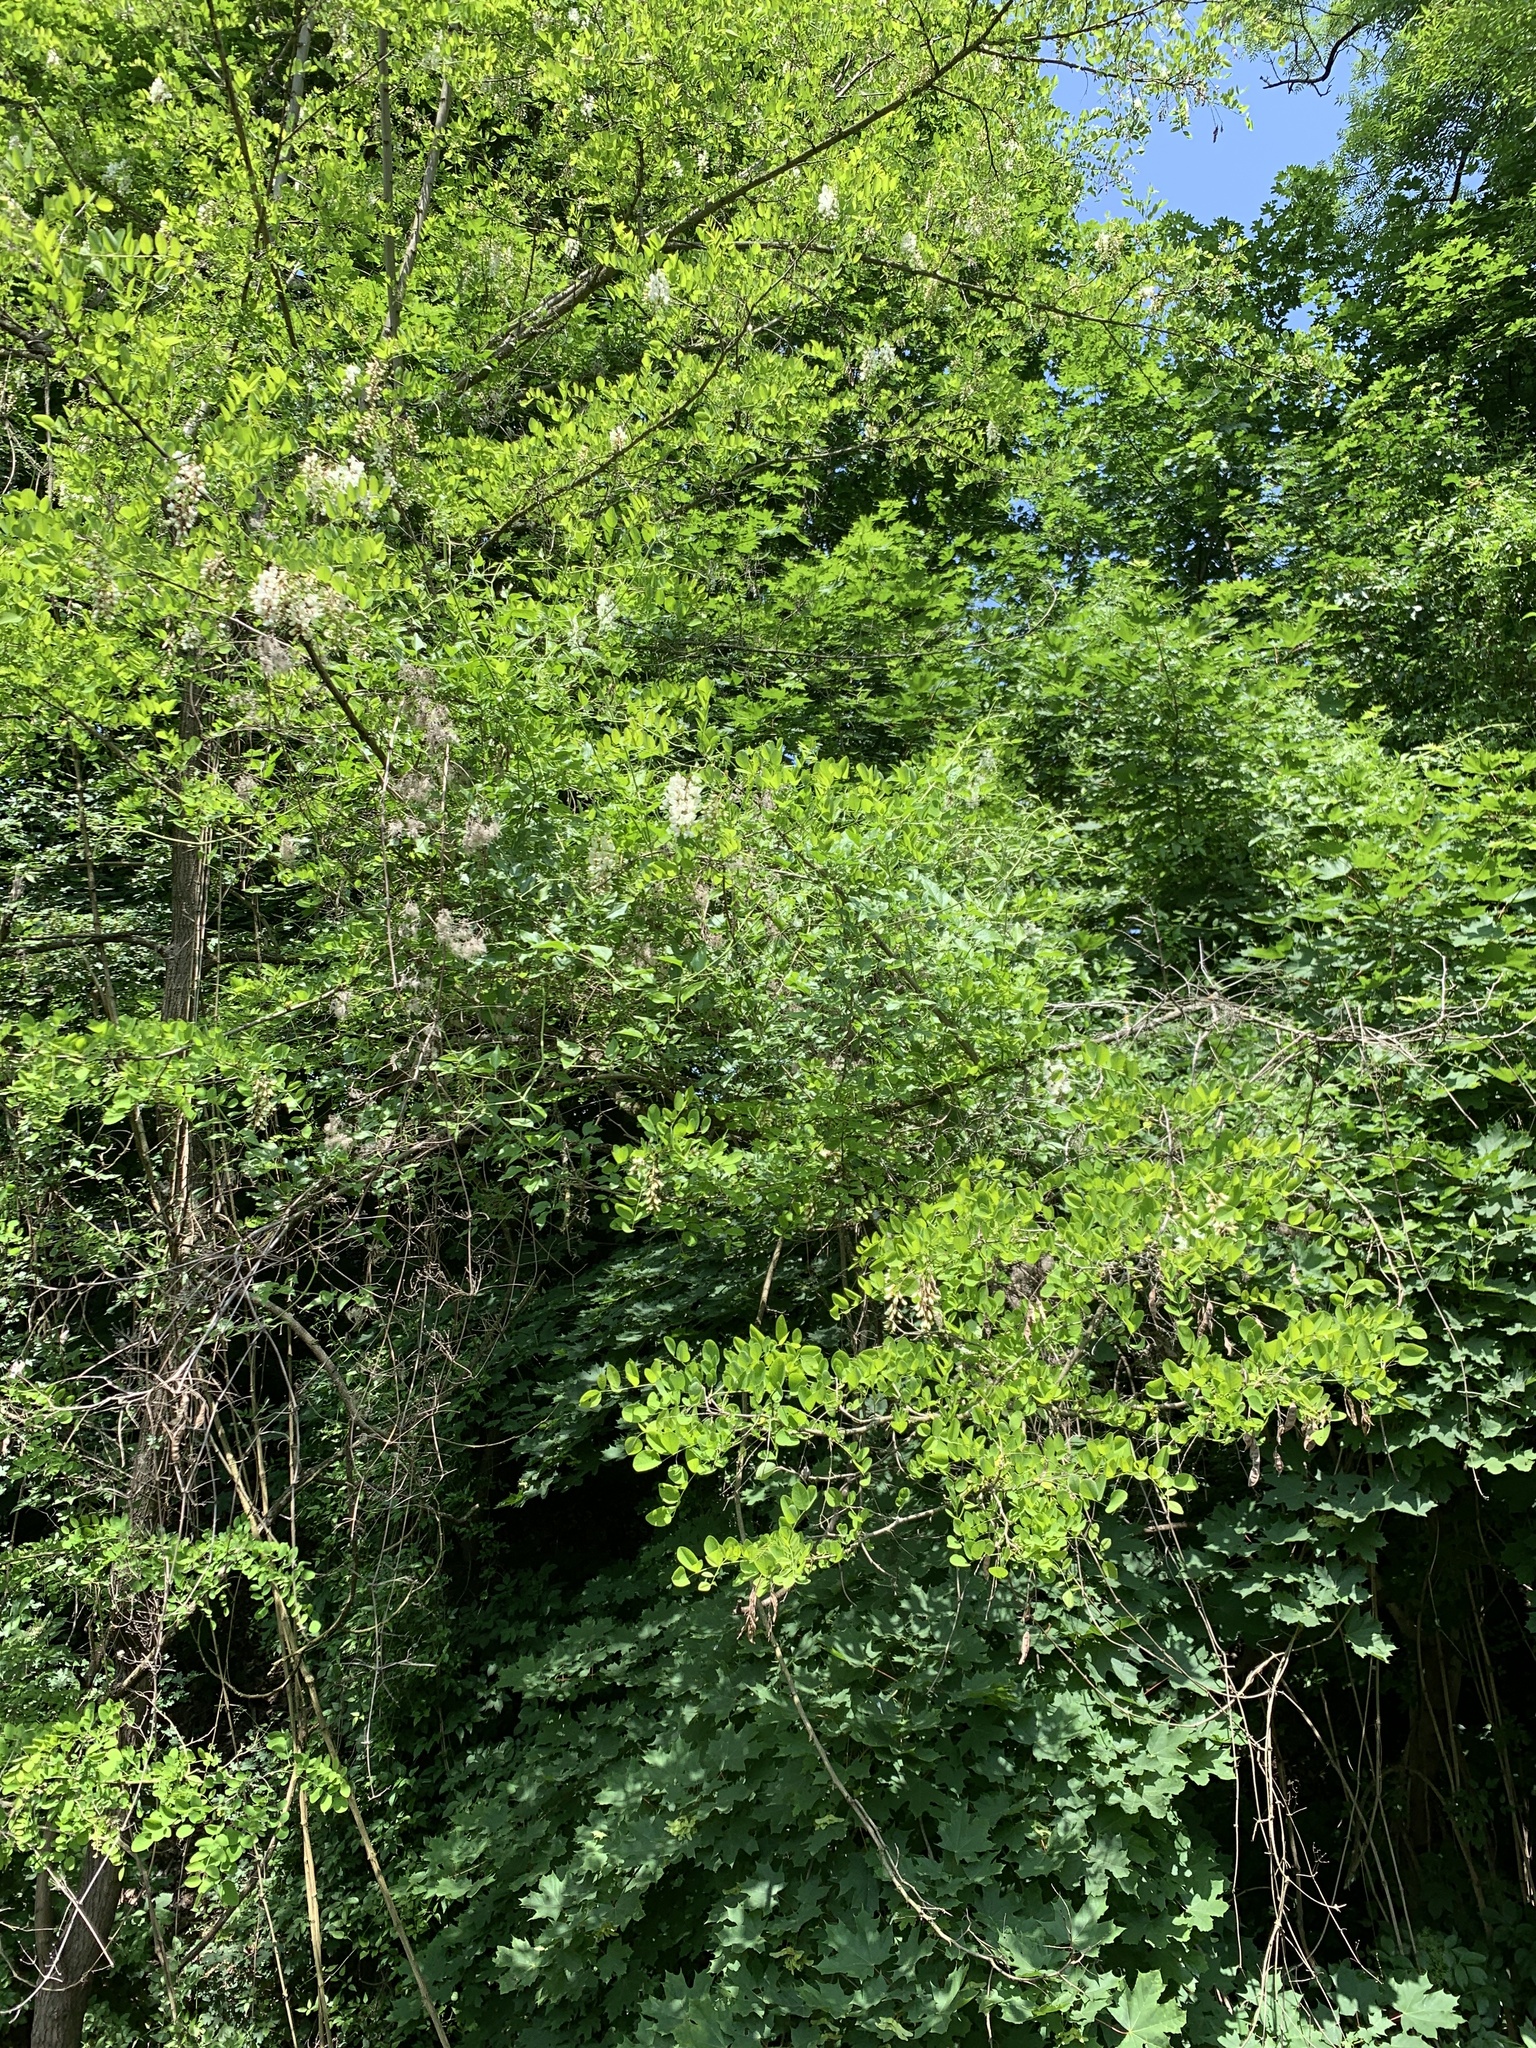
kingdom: Plantae
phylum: Tracheophyta
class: Magnoliopsida
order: Fabales
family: Fabaceae
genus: Robinia
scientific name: Robinia pseudoacacia
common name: Black locust
